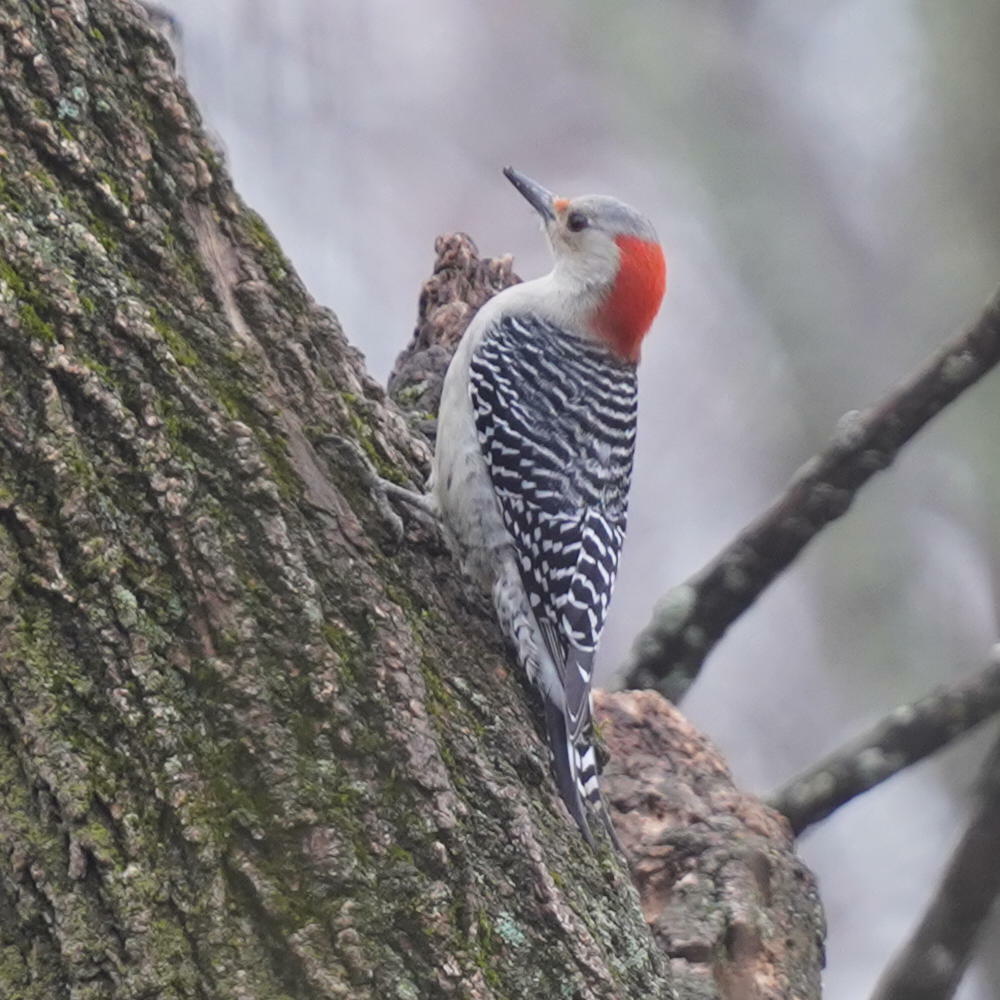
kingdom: Animalia
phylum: Chordata
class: Aves
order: Piciformes
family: Picidae
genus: Melanerpes
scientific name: Melanerpes carolinus
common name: Red-bellied woodpecker
